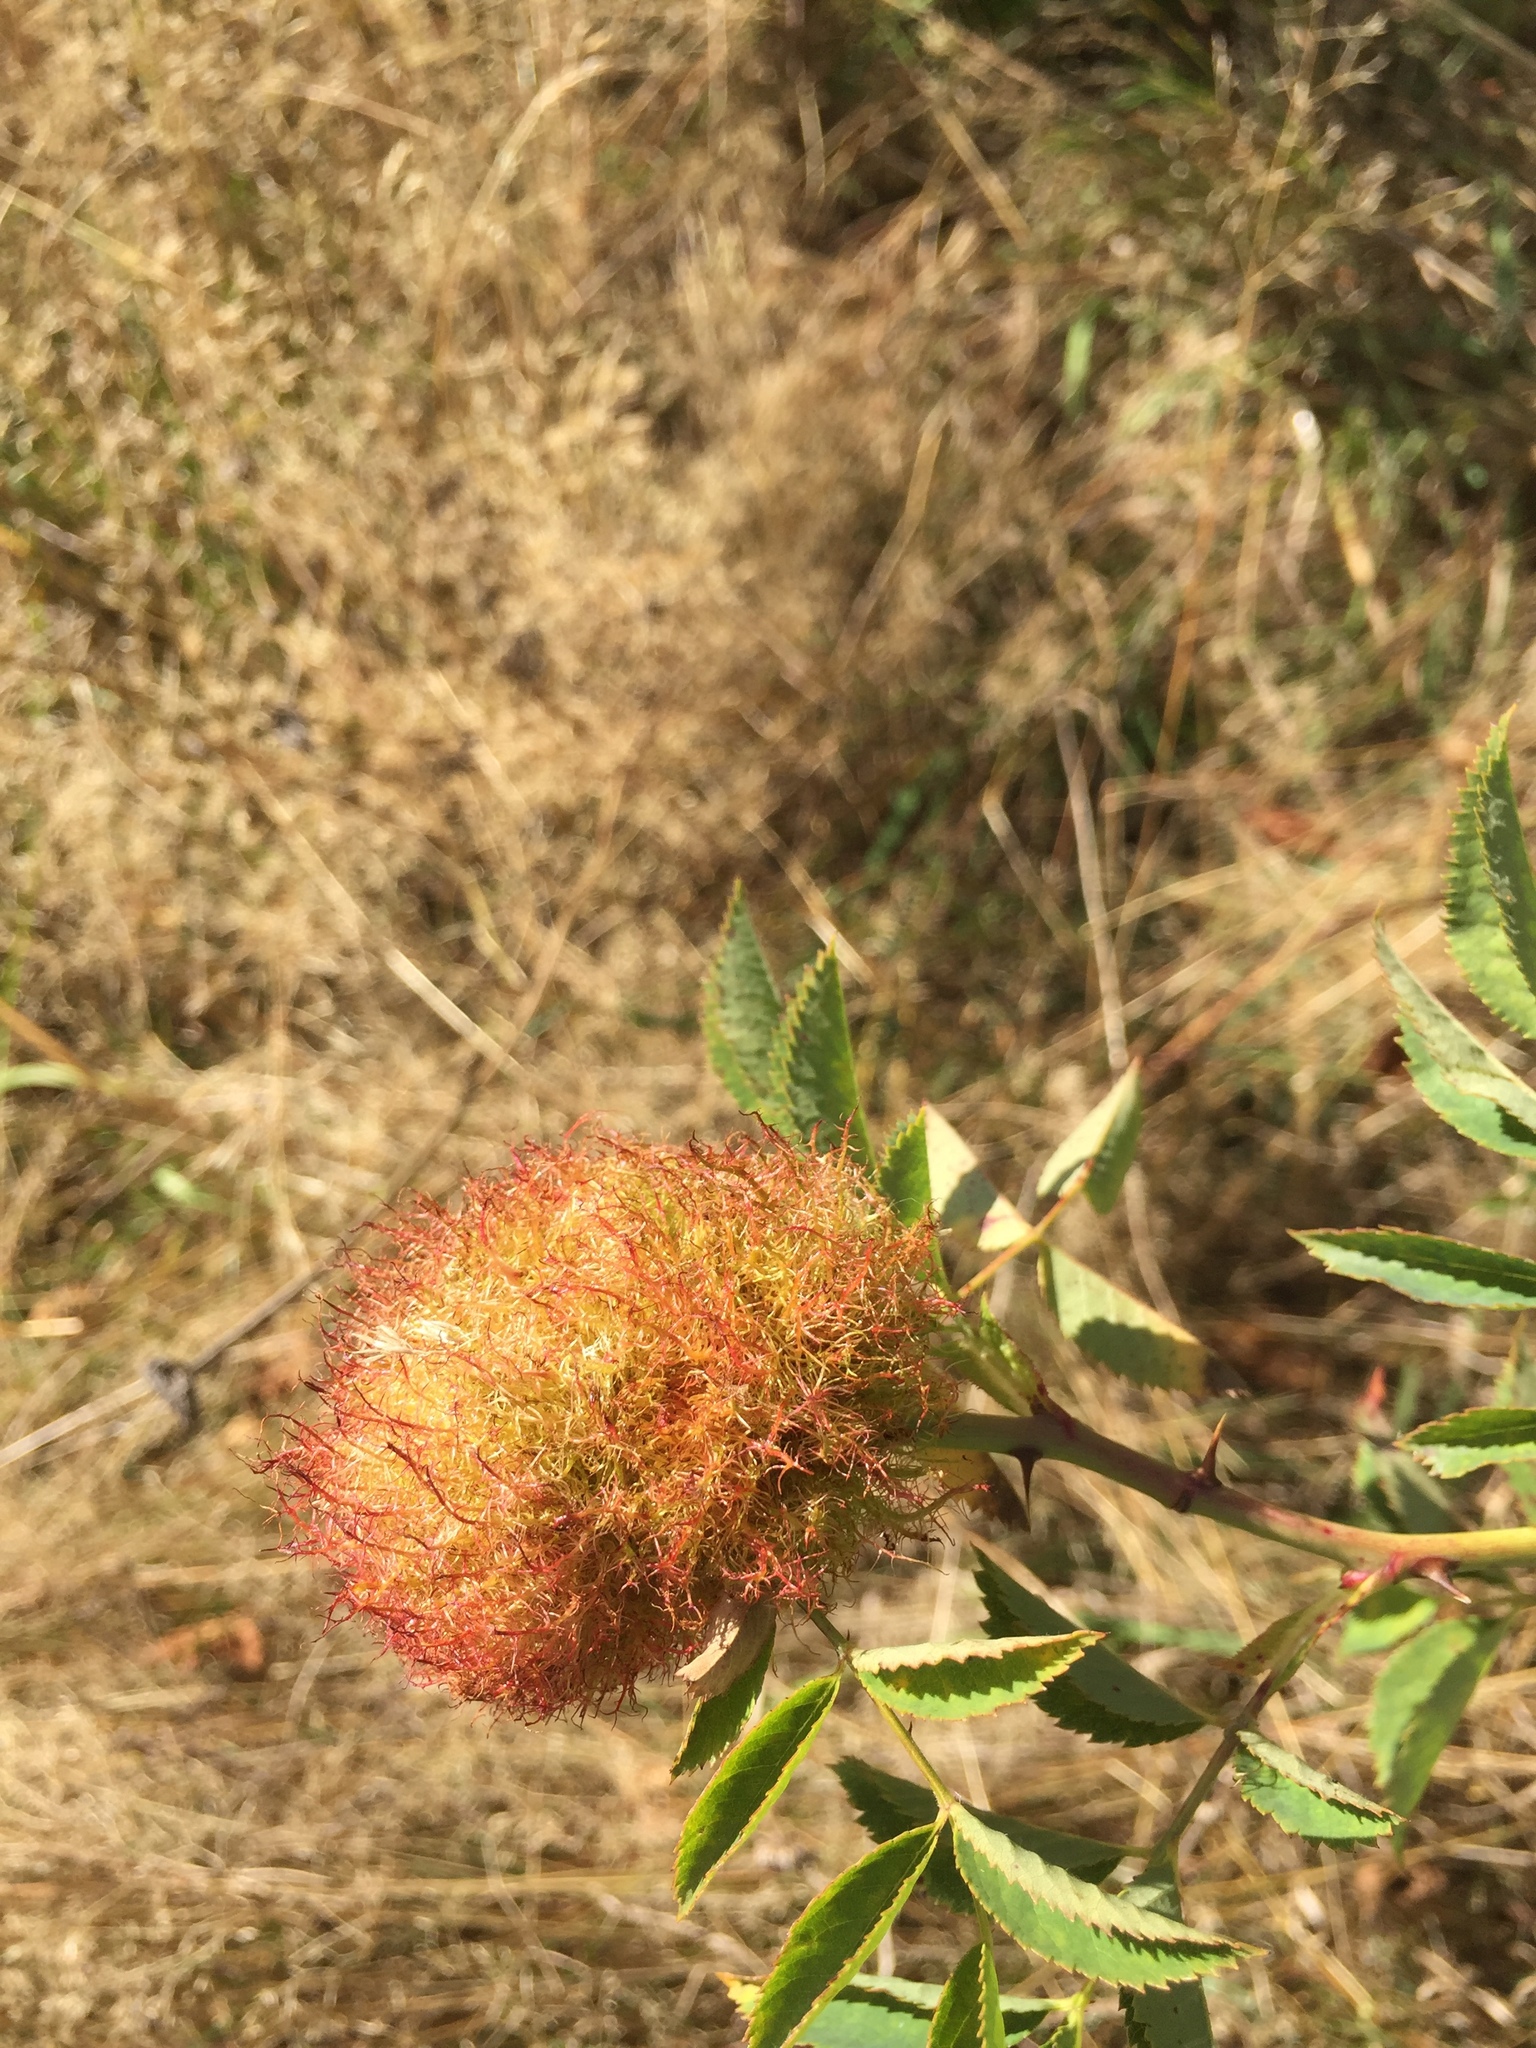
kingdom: Animalia
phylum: Arthropoda
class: Insecta
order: Hymenoptera
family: Cynipidae
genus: Diplolepis
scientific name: Diplolepis rosae
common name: Bedeguar gall
